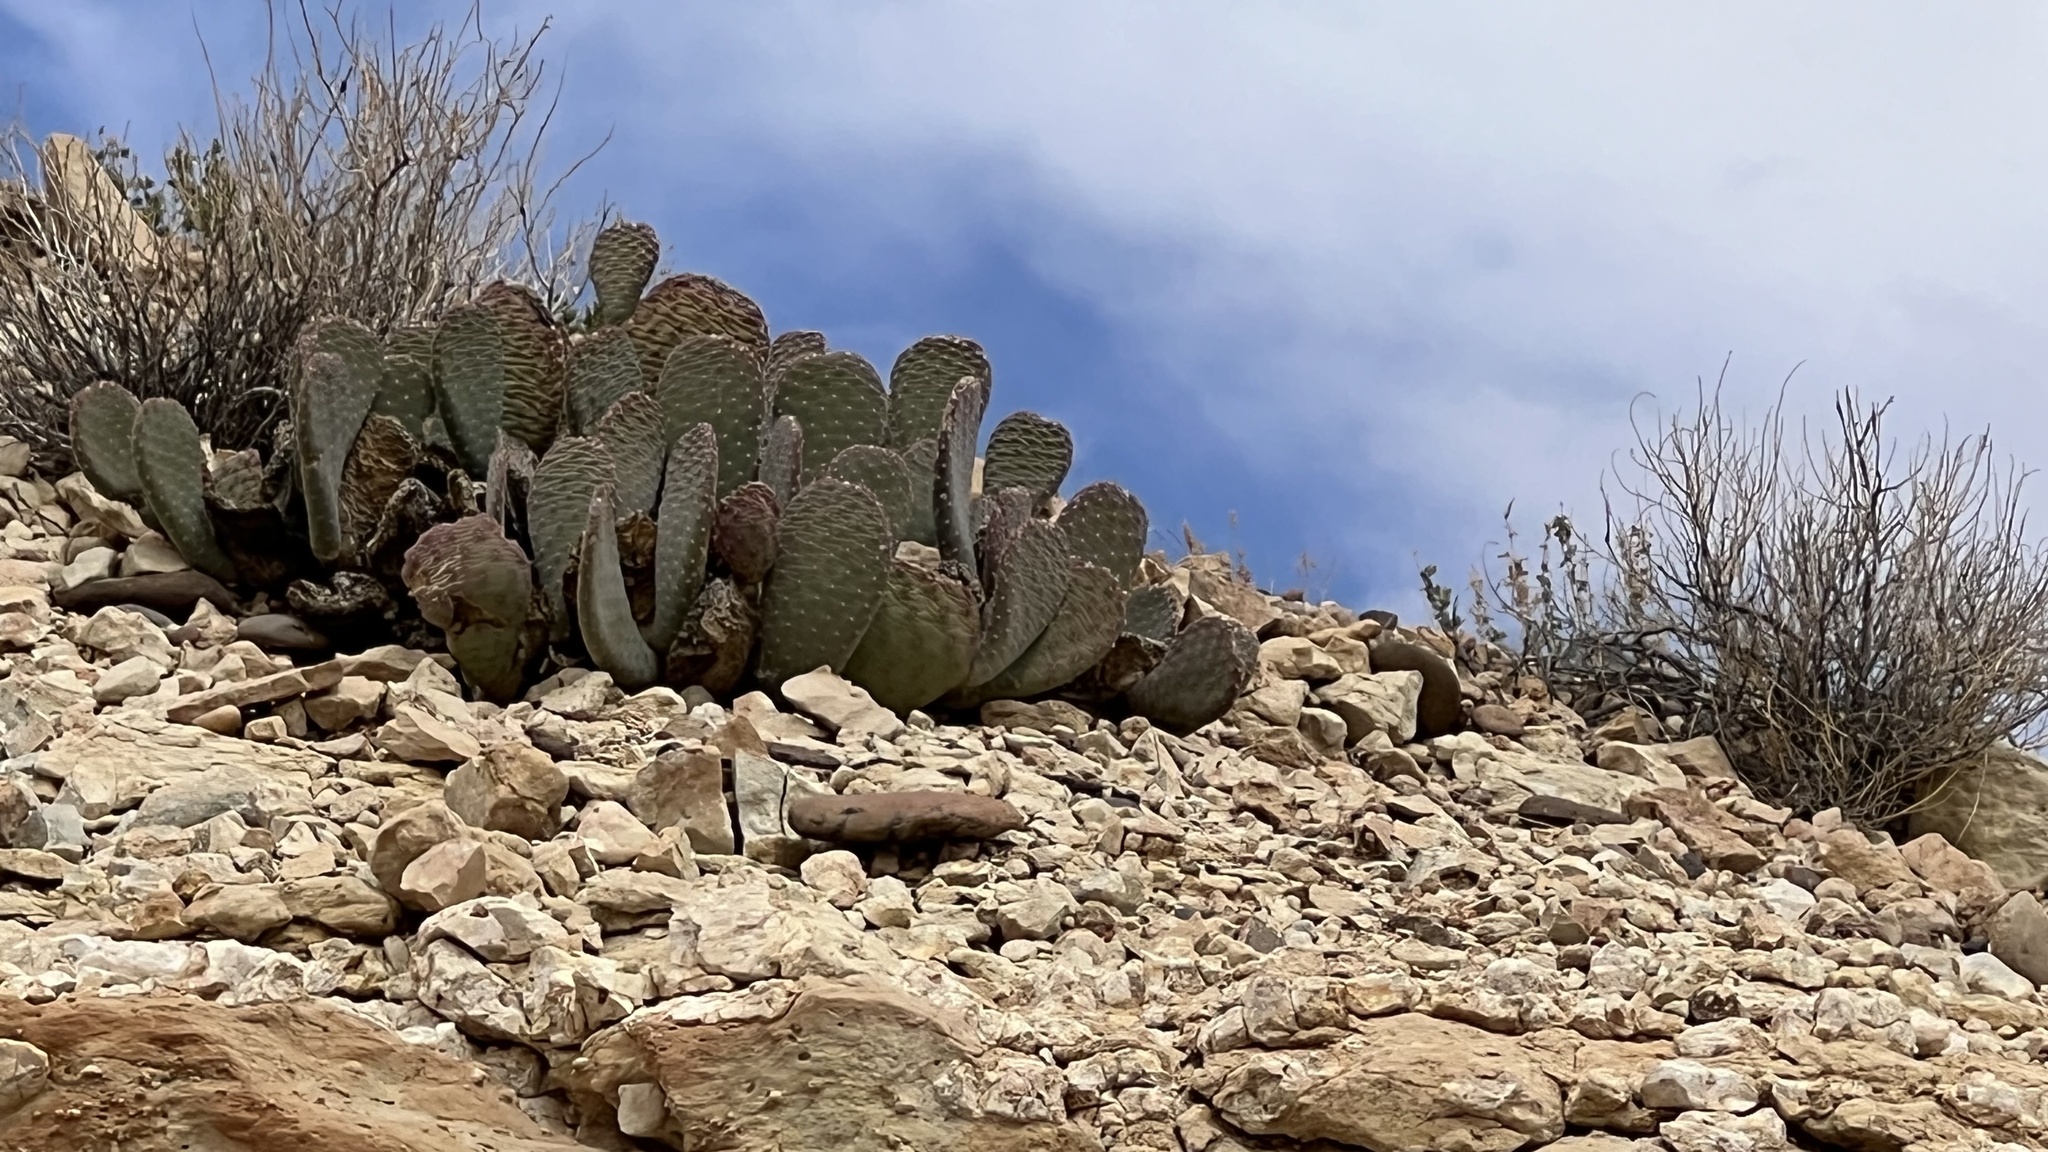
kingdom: Plantae
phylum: Tracheophyta
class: Magnoliopsida
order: Caryophyllales
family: Cactaceae
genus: Opuntia
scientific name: Opuntia basilaris
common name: Beavertail prickly-pear
